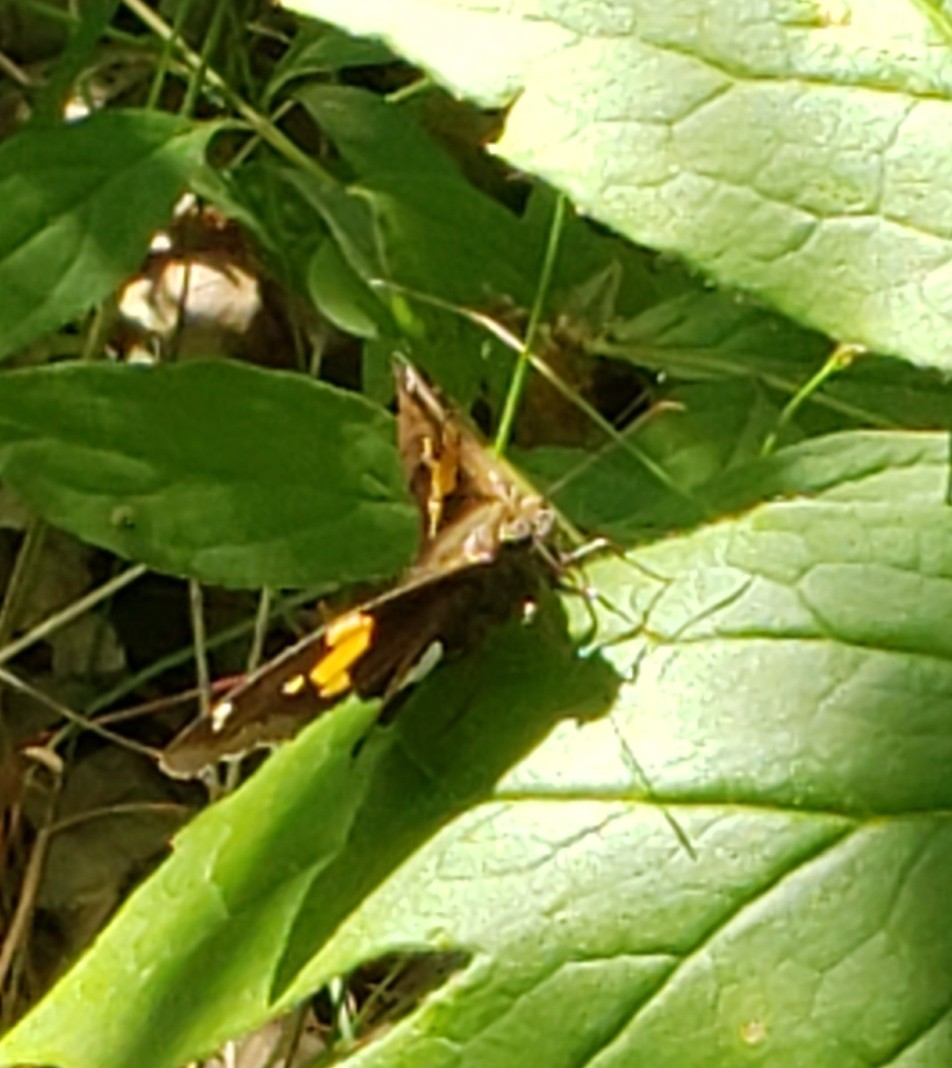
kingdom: Animalia
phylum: Arthropoda
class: Insecta
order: Lepidoptera
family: Hesperiidae
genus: Epargyreus
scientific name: Epargyreus clarus
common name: Silver-spotted skipper
